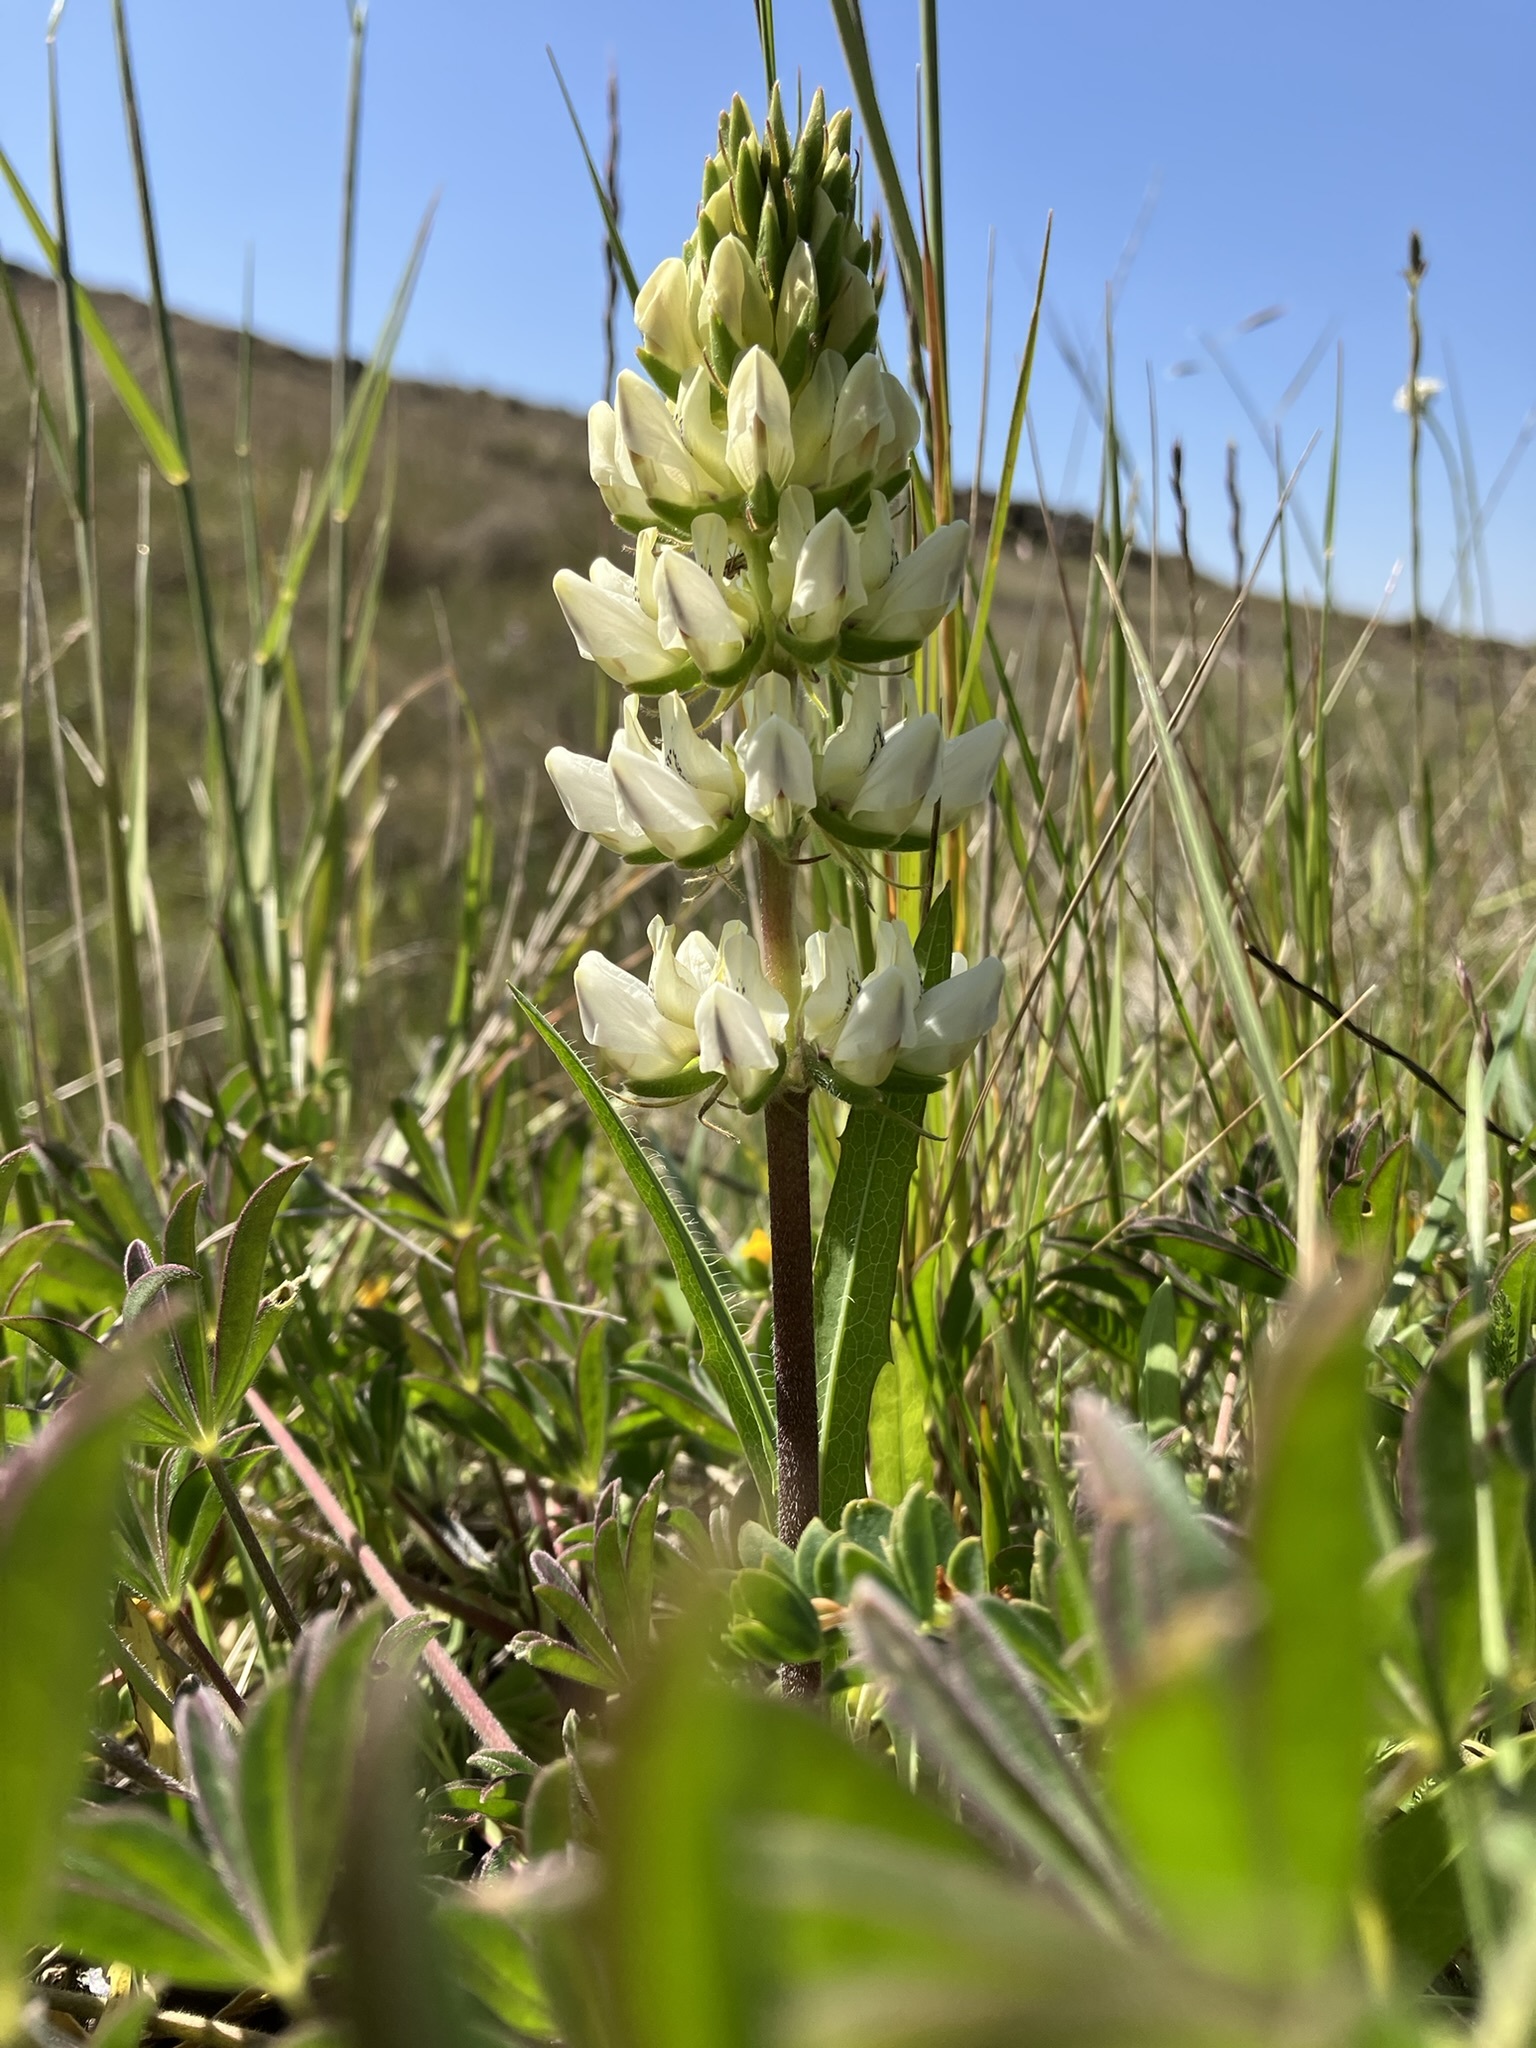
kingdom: Plantae
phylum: Tracheophyta
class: Magnoliopsida
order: Fabales
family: Fabaceae
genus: Lupinus
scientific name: Lupinus microcarpus
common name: Chick lupine
